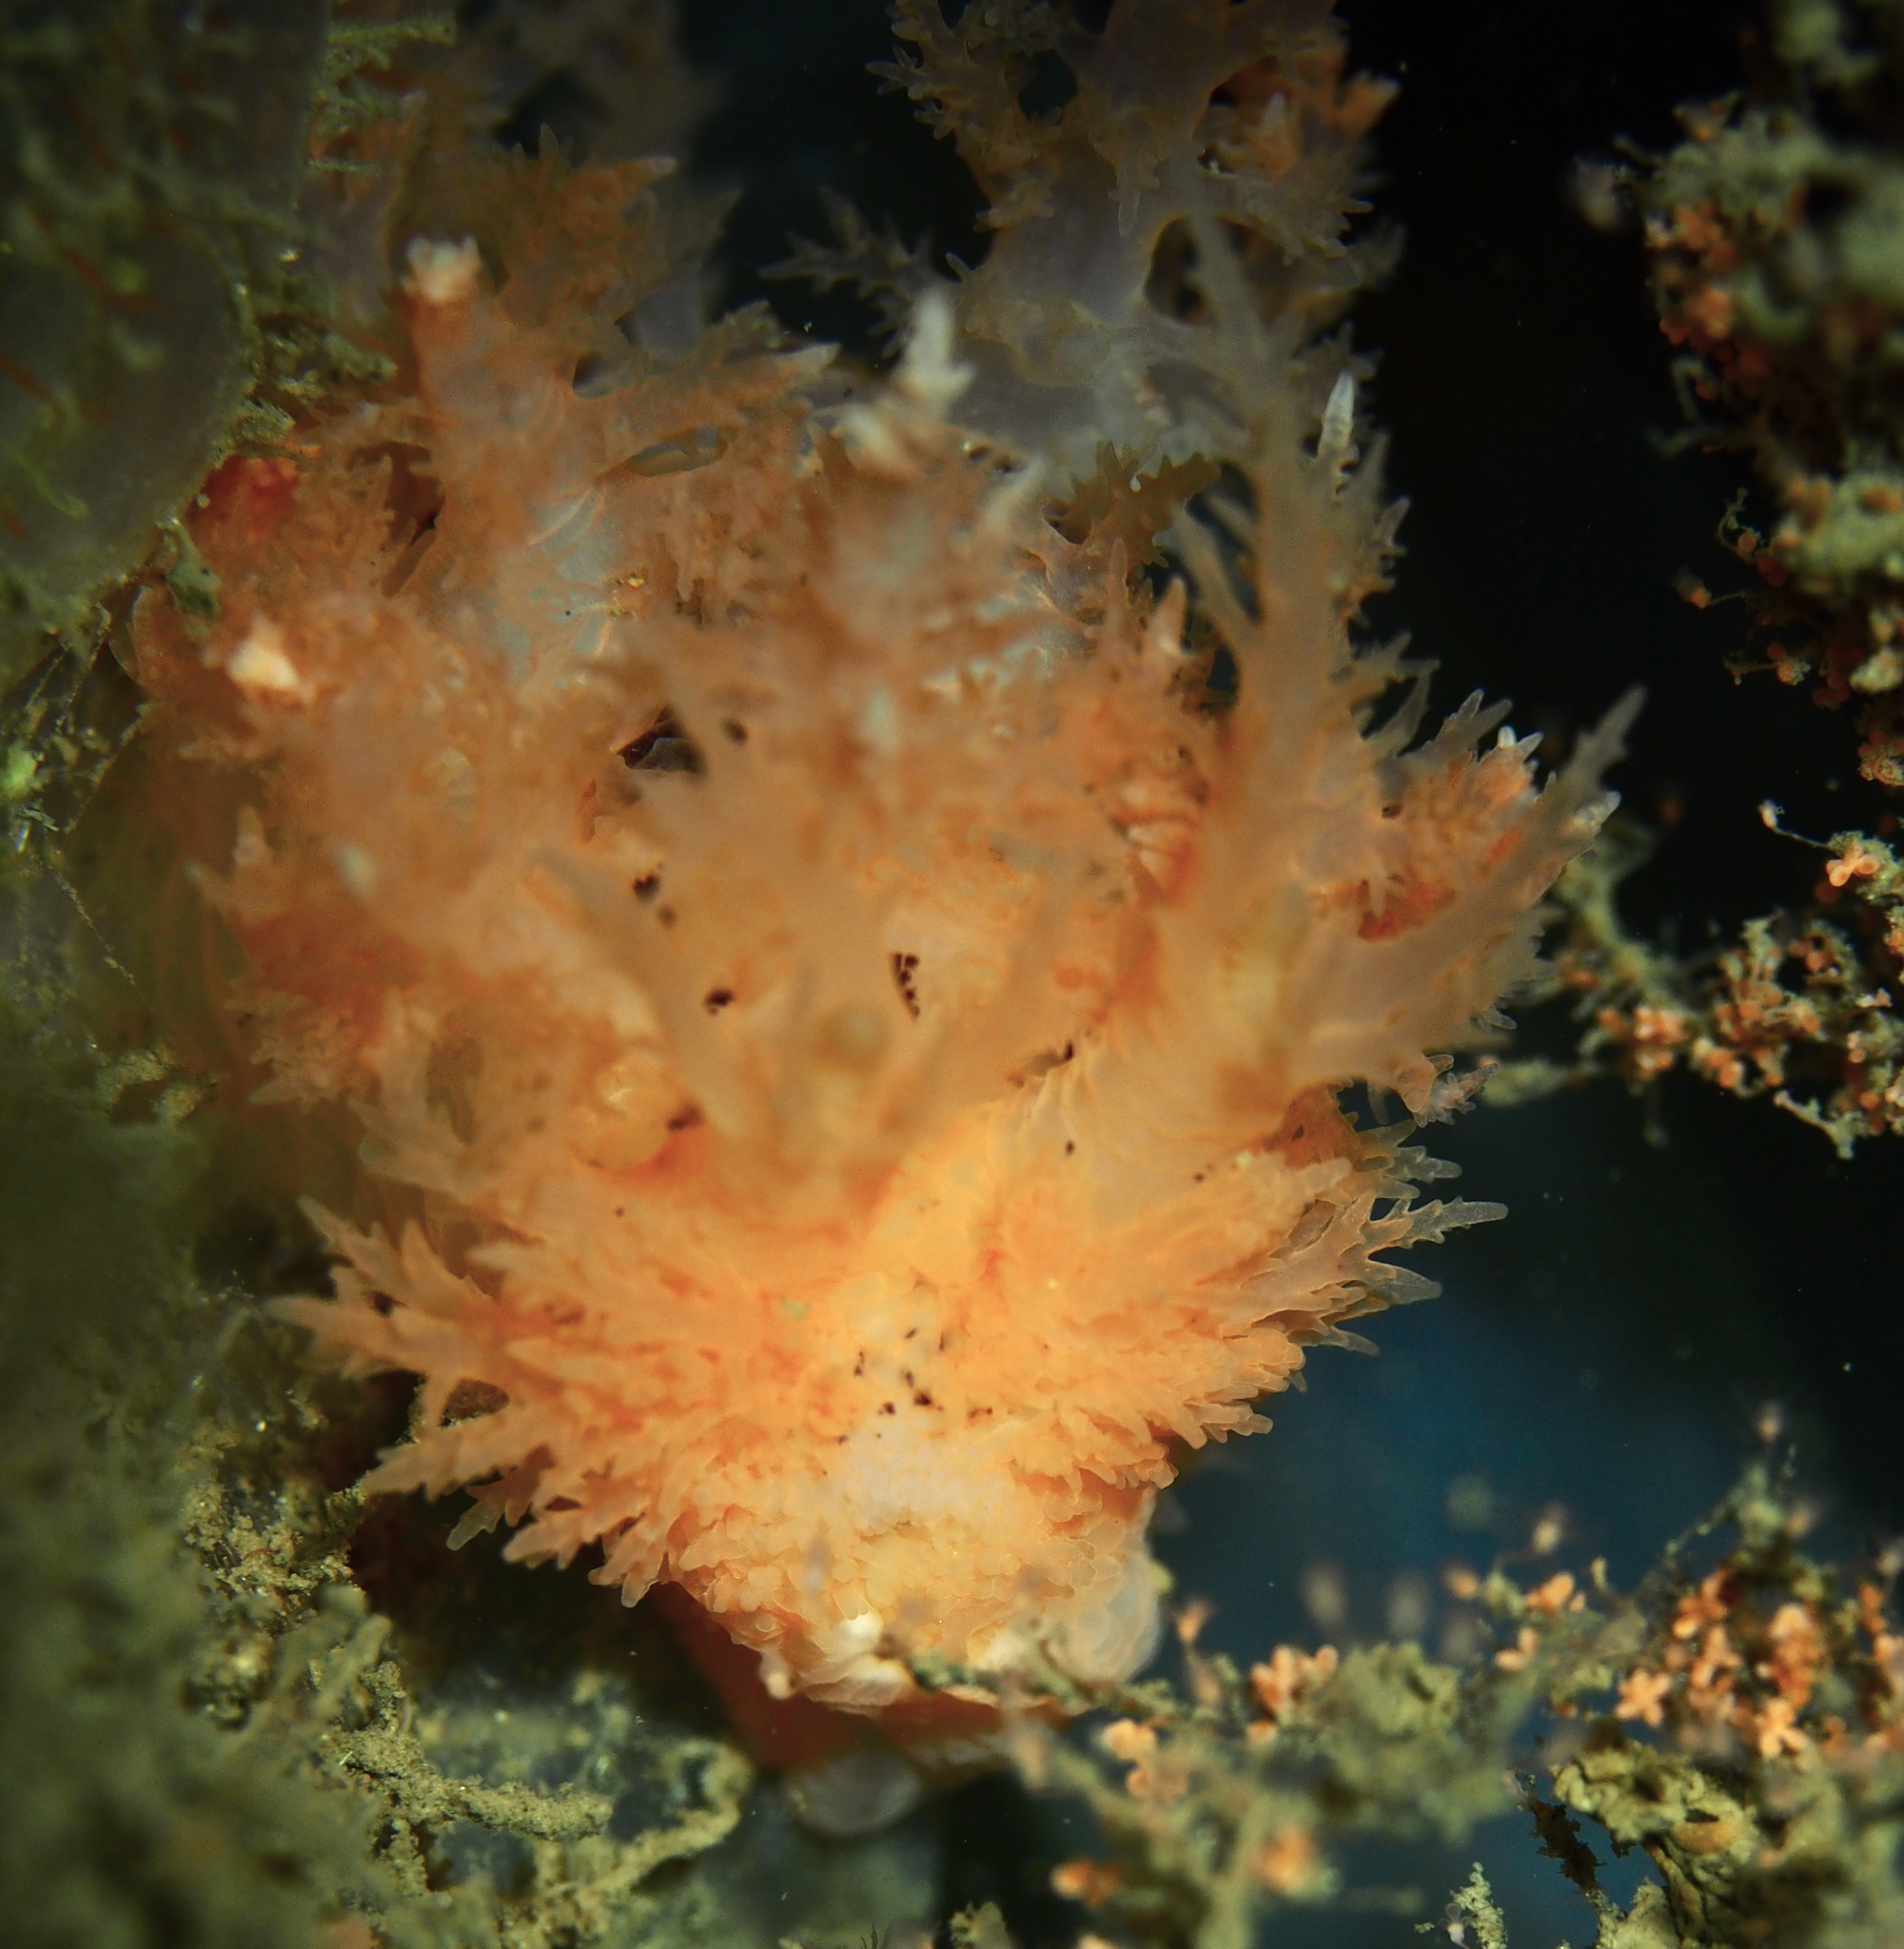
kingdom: Animalia
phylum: Mollusca
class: Gastropoda
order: Nudibranchia
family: Dendronotidae
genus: Dendronotus
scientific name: Dendronotus frondosus
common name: Bushy-backed nudibranch
